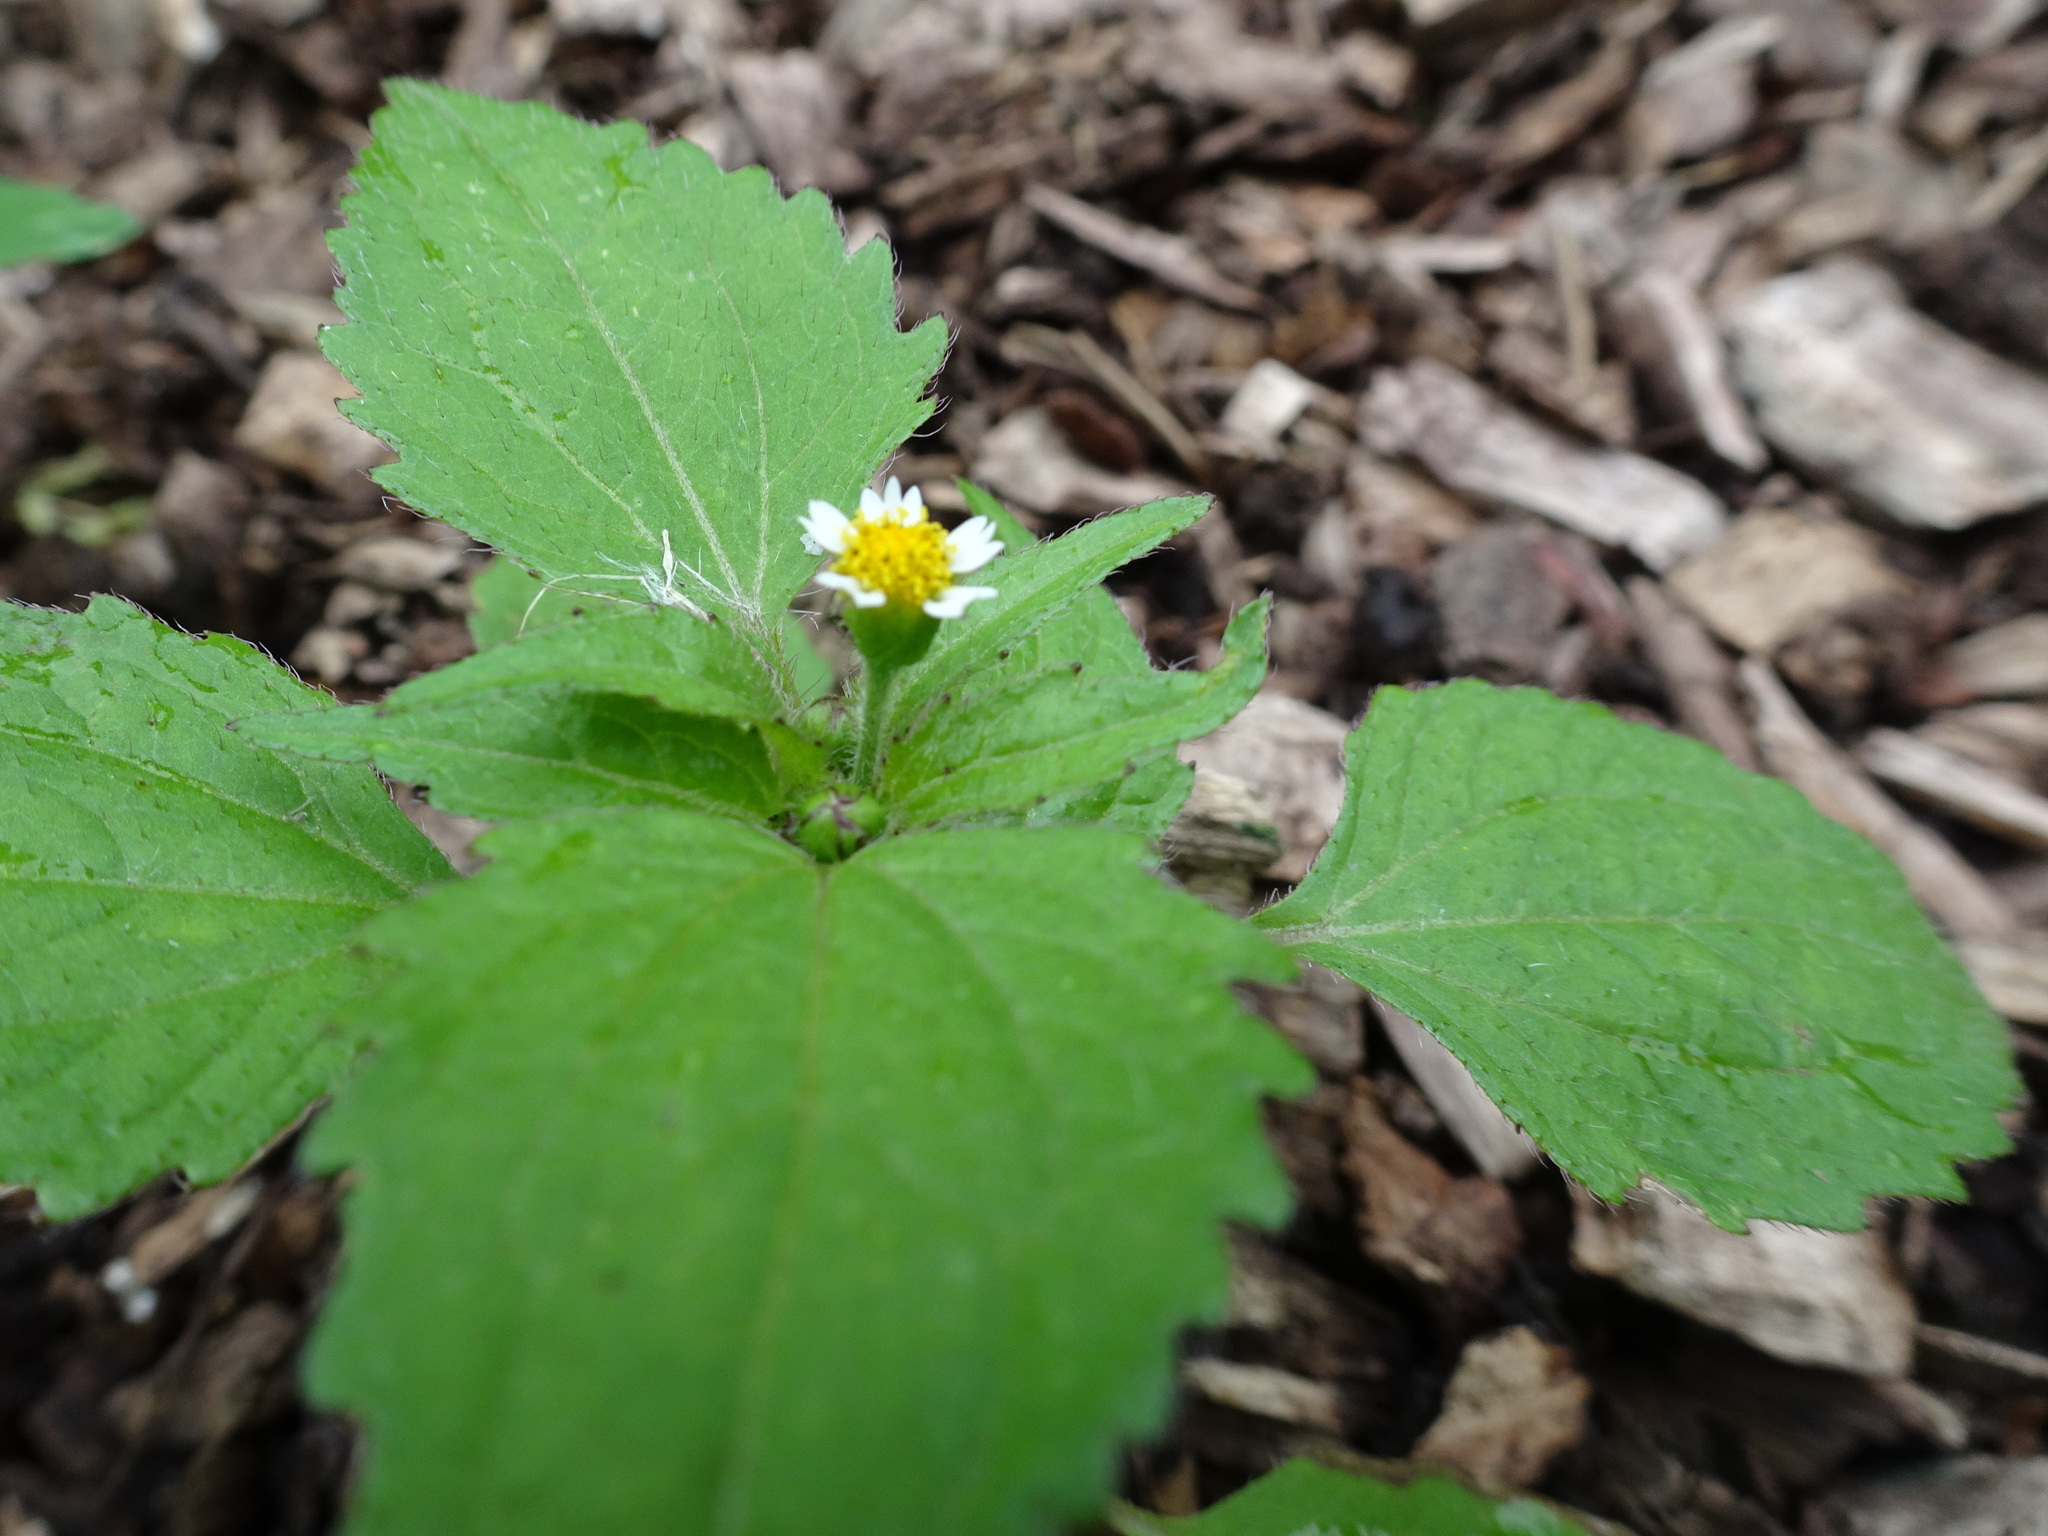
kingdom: Plantae
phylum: Tracheophyta
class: Magnoliopsida
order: Asterales
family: Asteraceae
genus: Galinsoga
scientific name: Galinsoga quadriradiata
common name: Shaggy soldier
